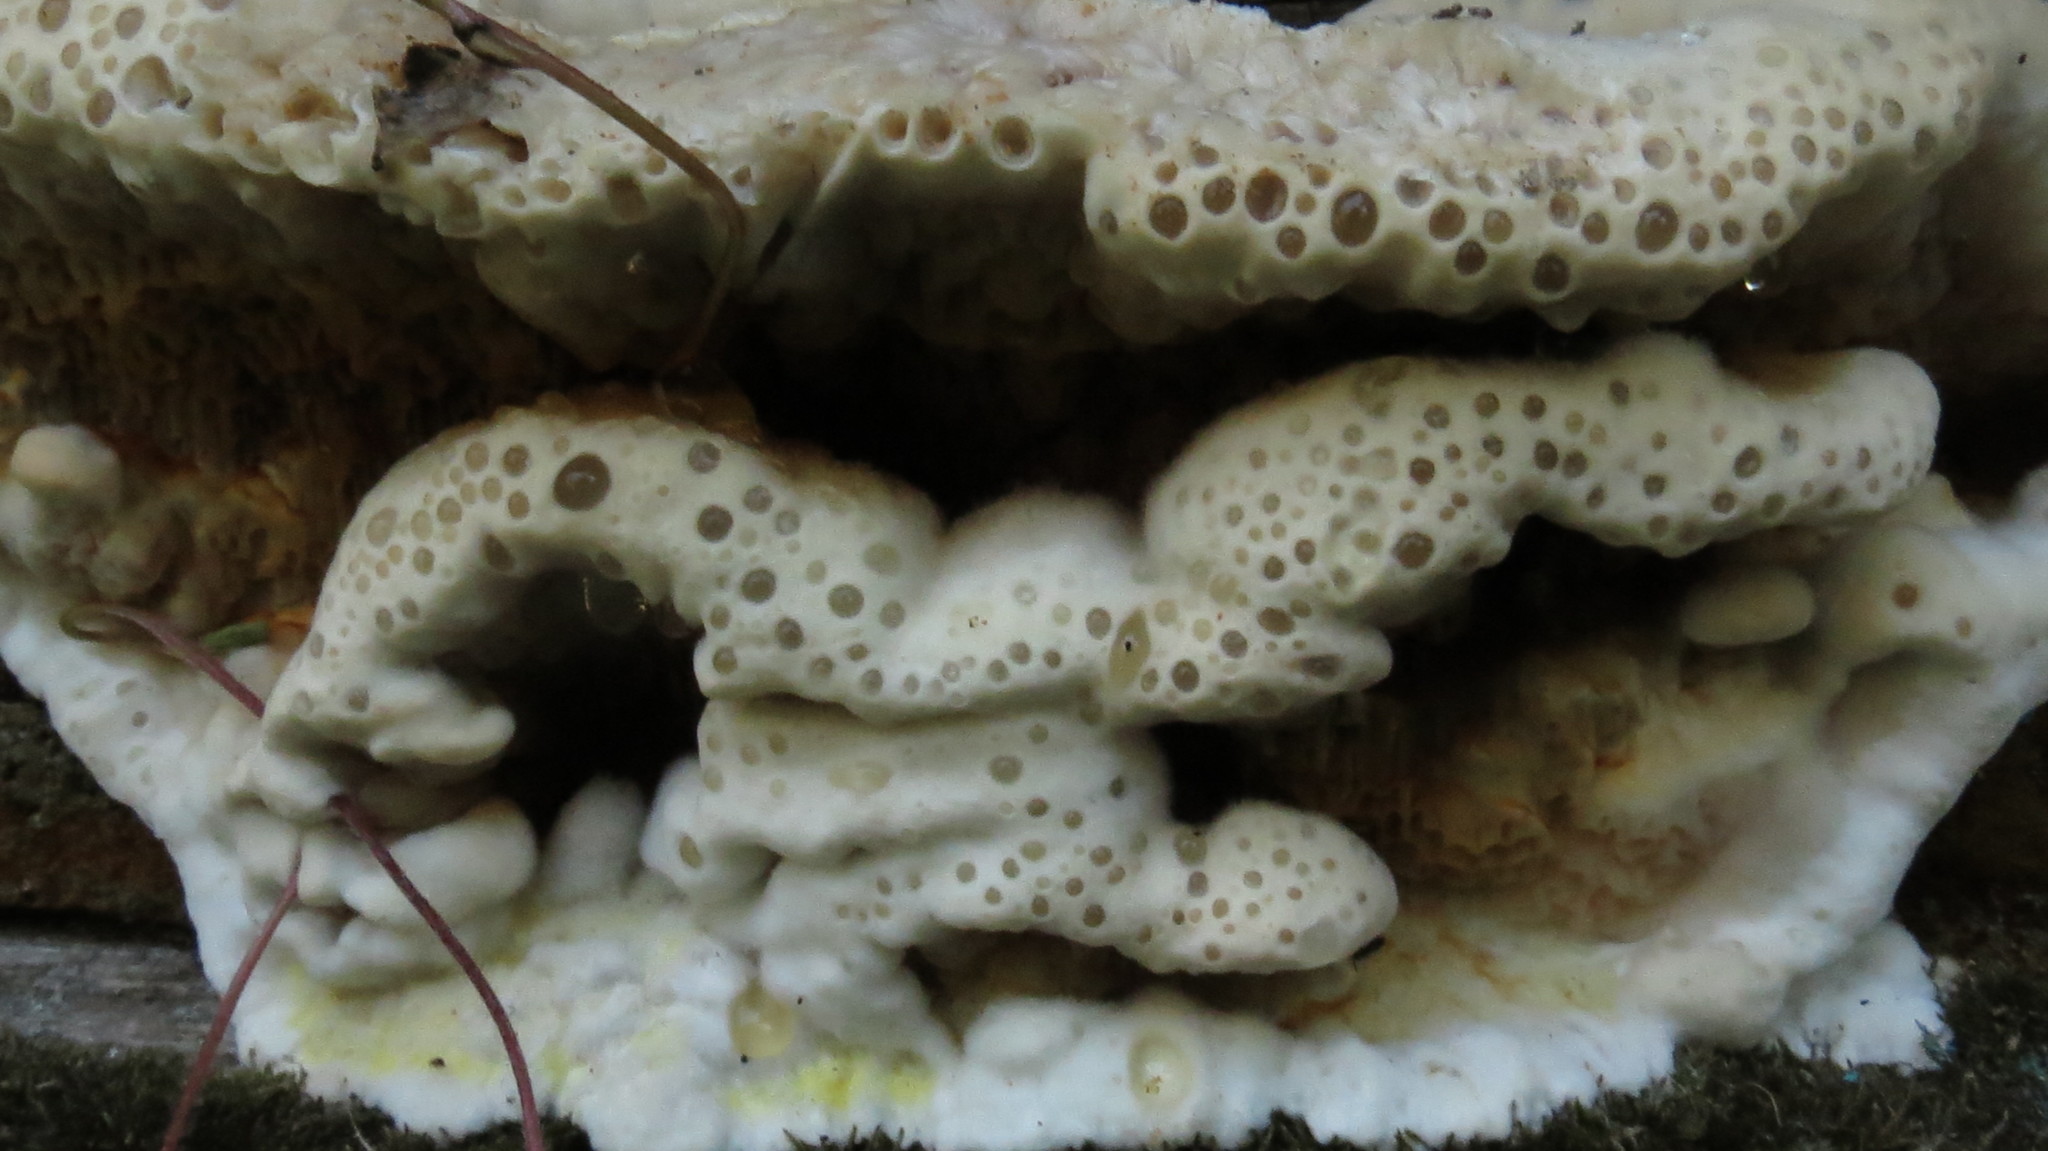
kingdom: Fungi
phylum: Basidiomycota
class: Agaricomycetes
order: Boletales
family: Serpulaceae
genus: Serpula
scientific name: Serpula
